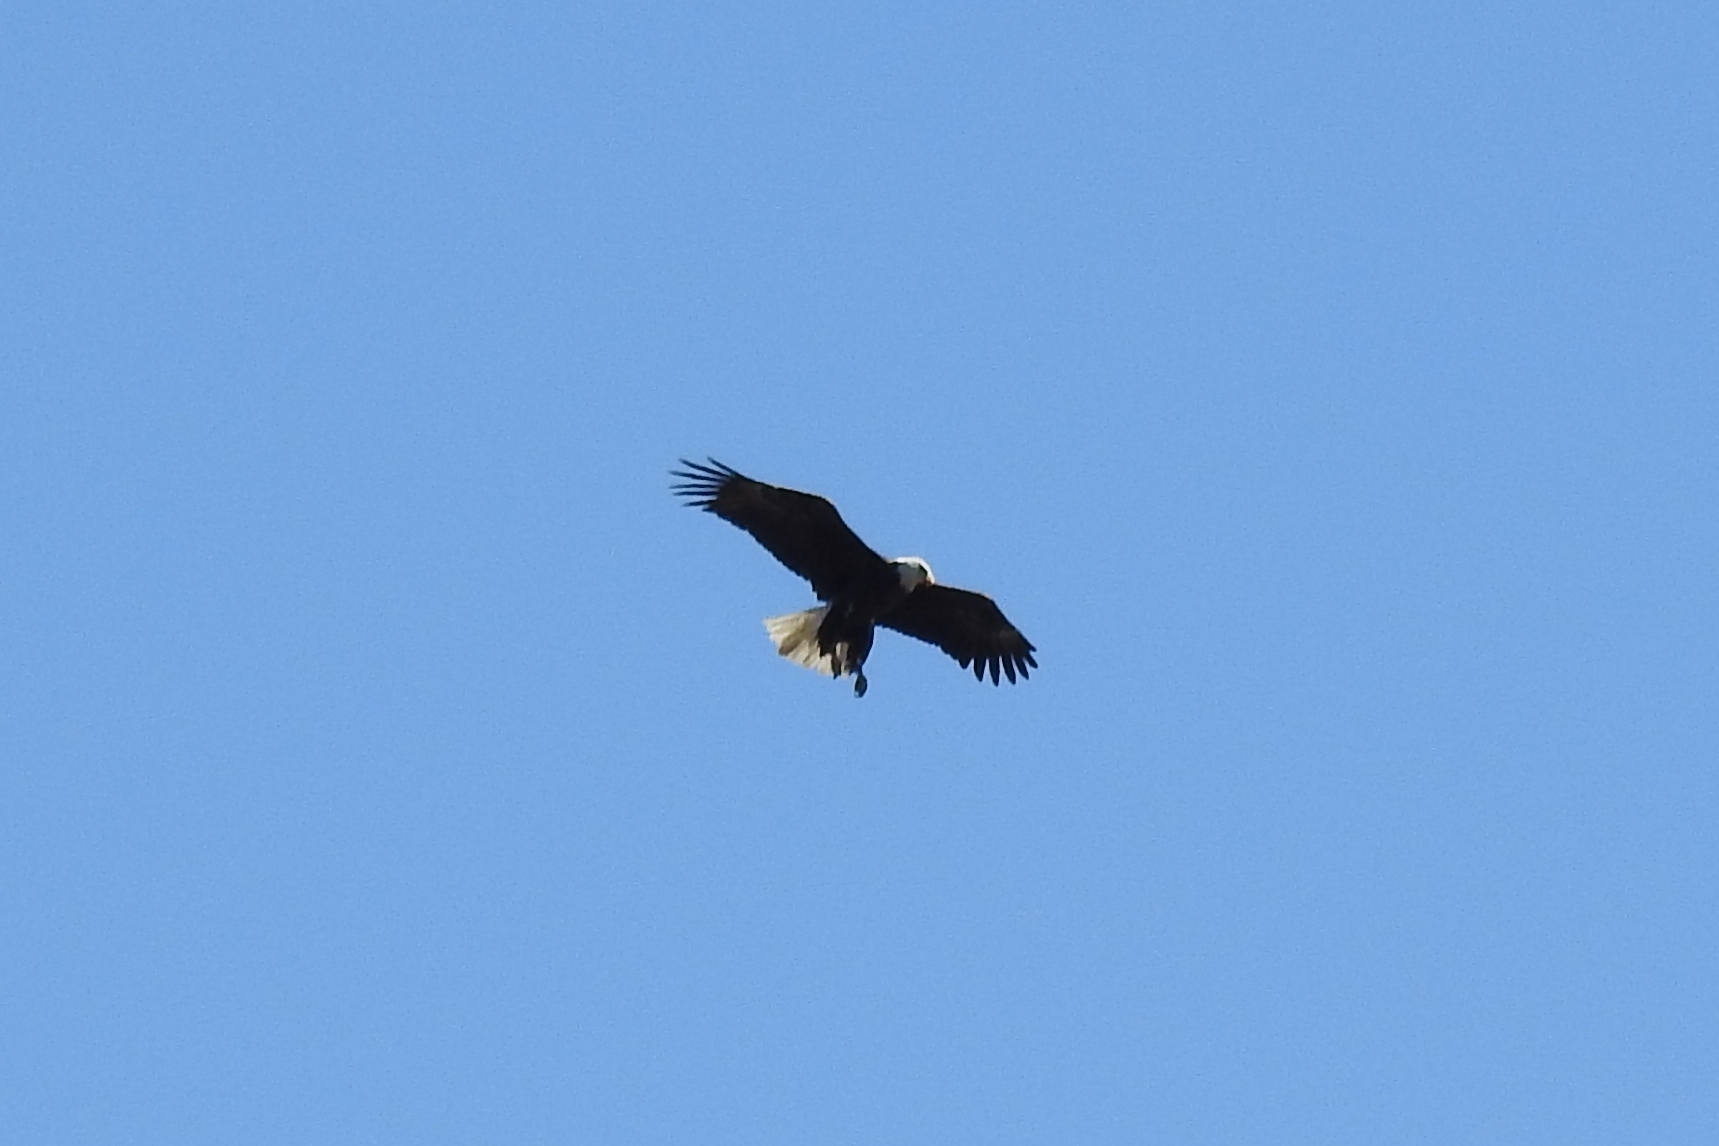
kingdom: Animalia
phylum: Chordata
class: Aves
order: Accipitriformes
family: Accipitridae
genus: Haliaeetus
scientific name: Haliaeetus leucocephalus
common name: Bald eagle
